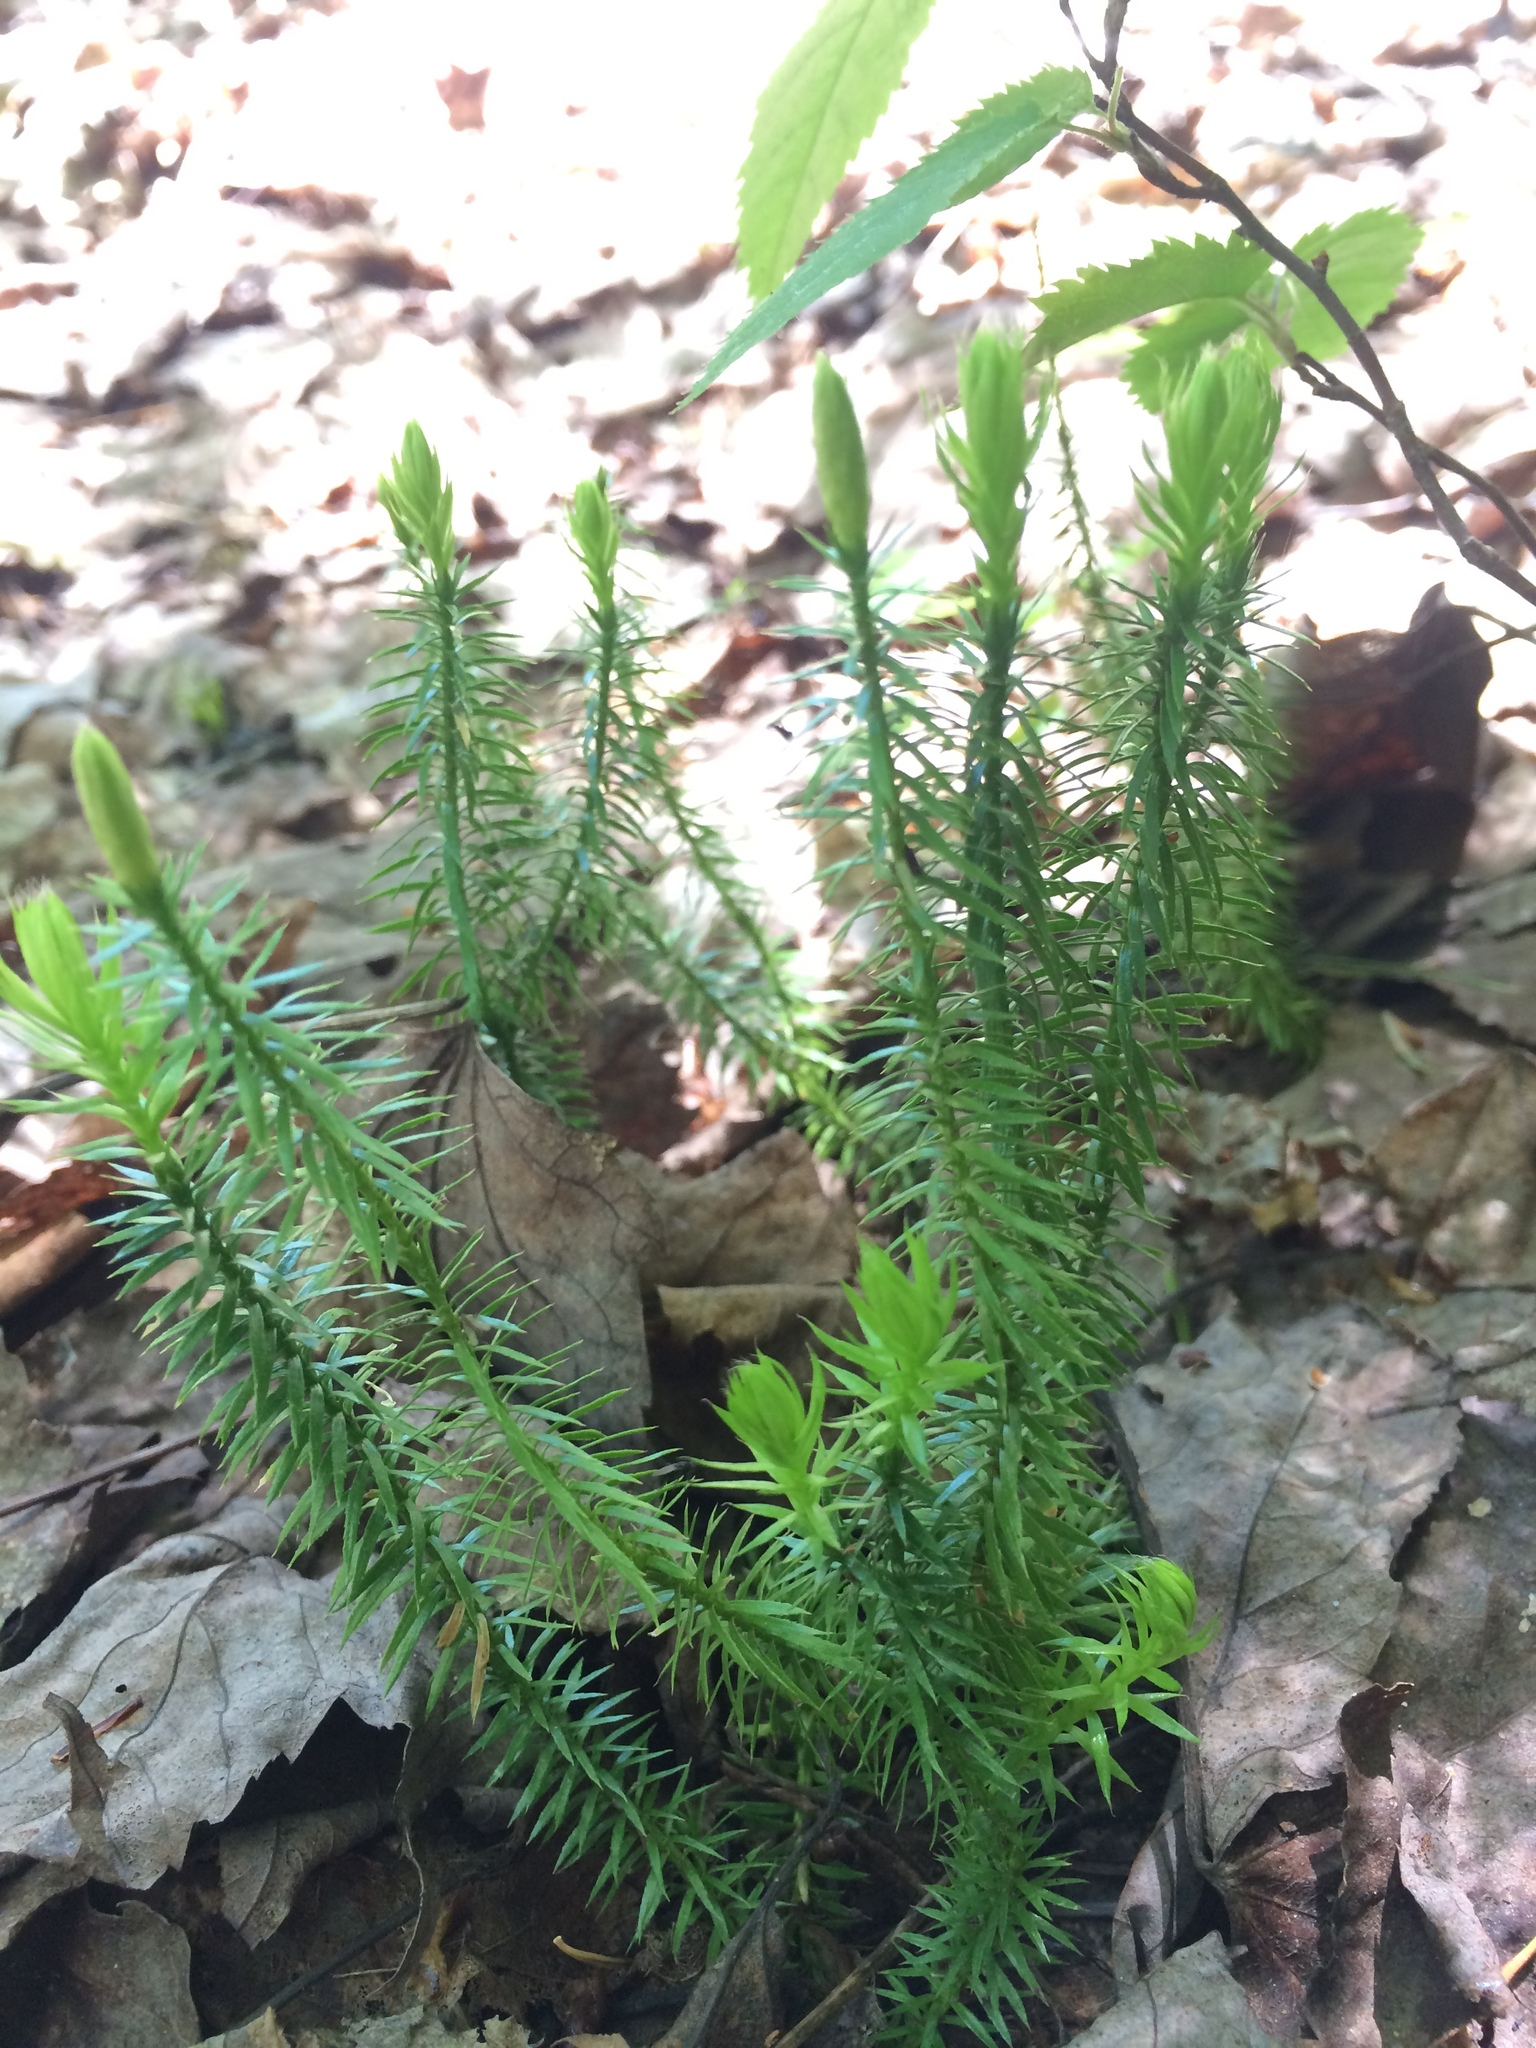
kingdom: Plantae
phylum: Tracheophyta
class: Lycopodiopsida
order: Lycopodiales
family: Lycopodiaceae
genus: Spinulum
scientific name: Spinulum annotinum
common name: Interrupted club-moss
